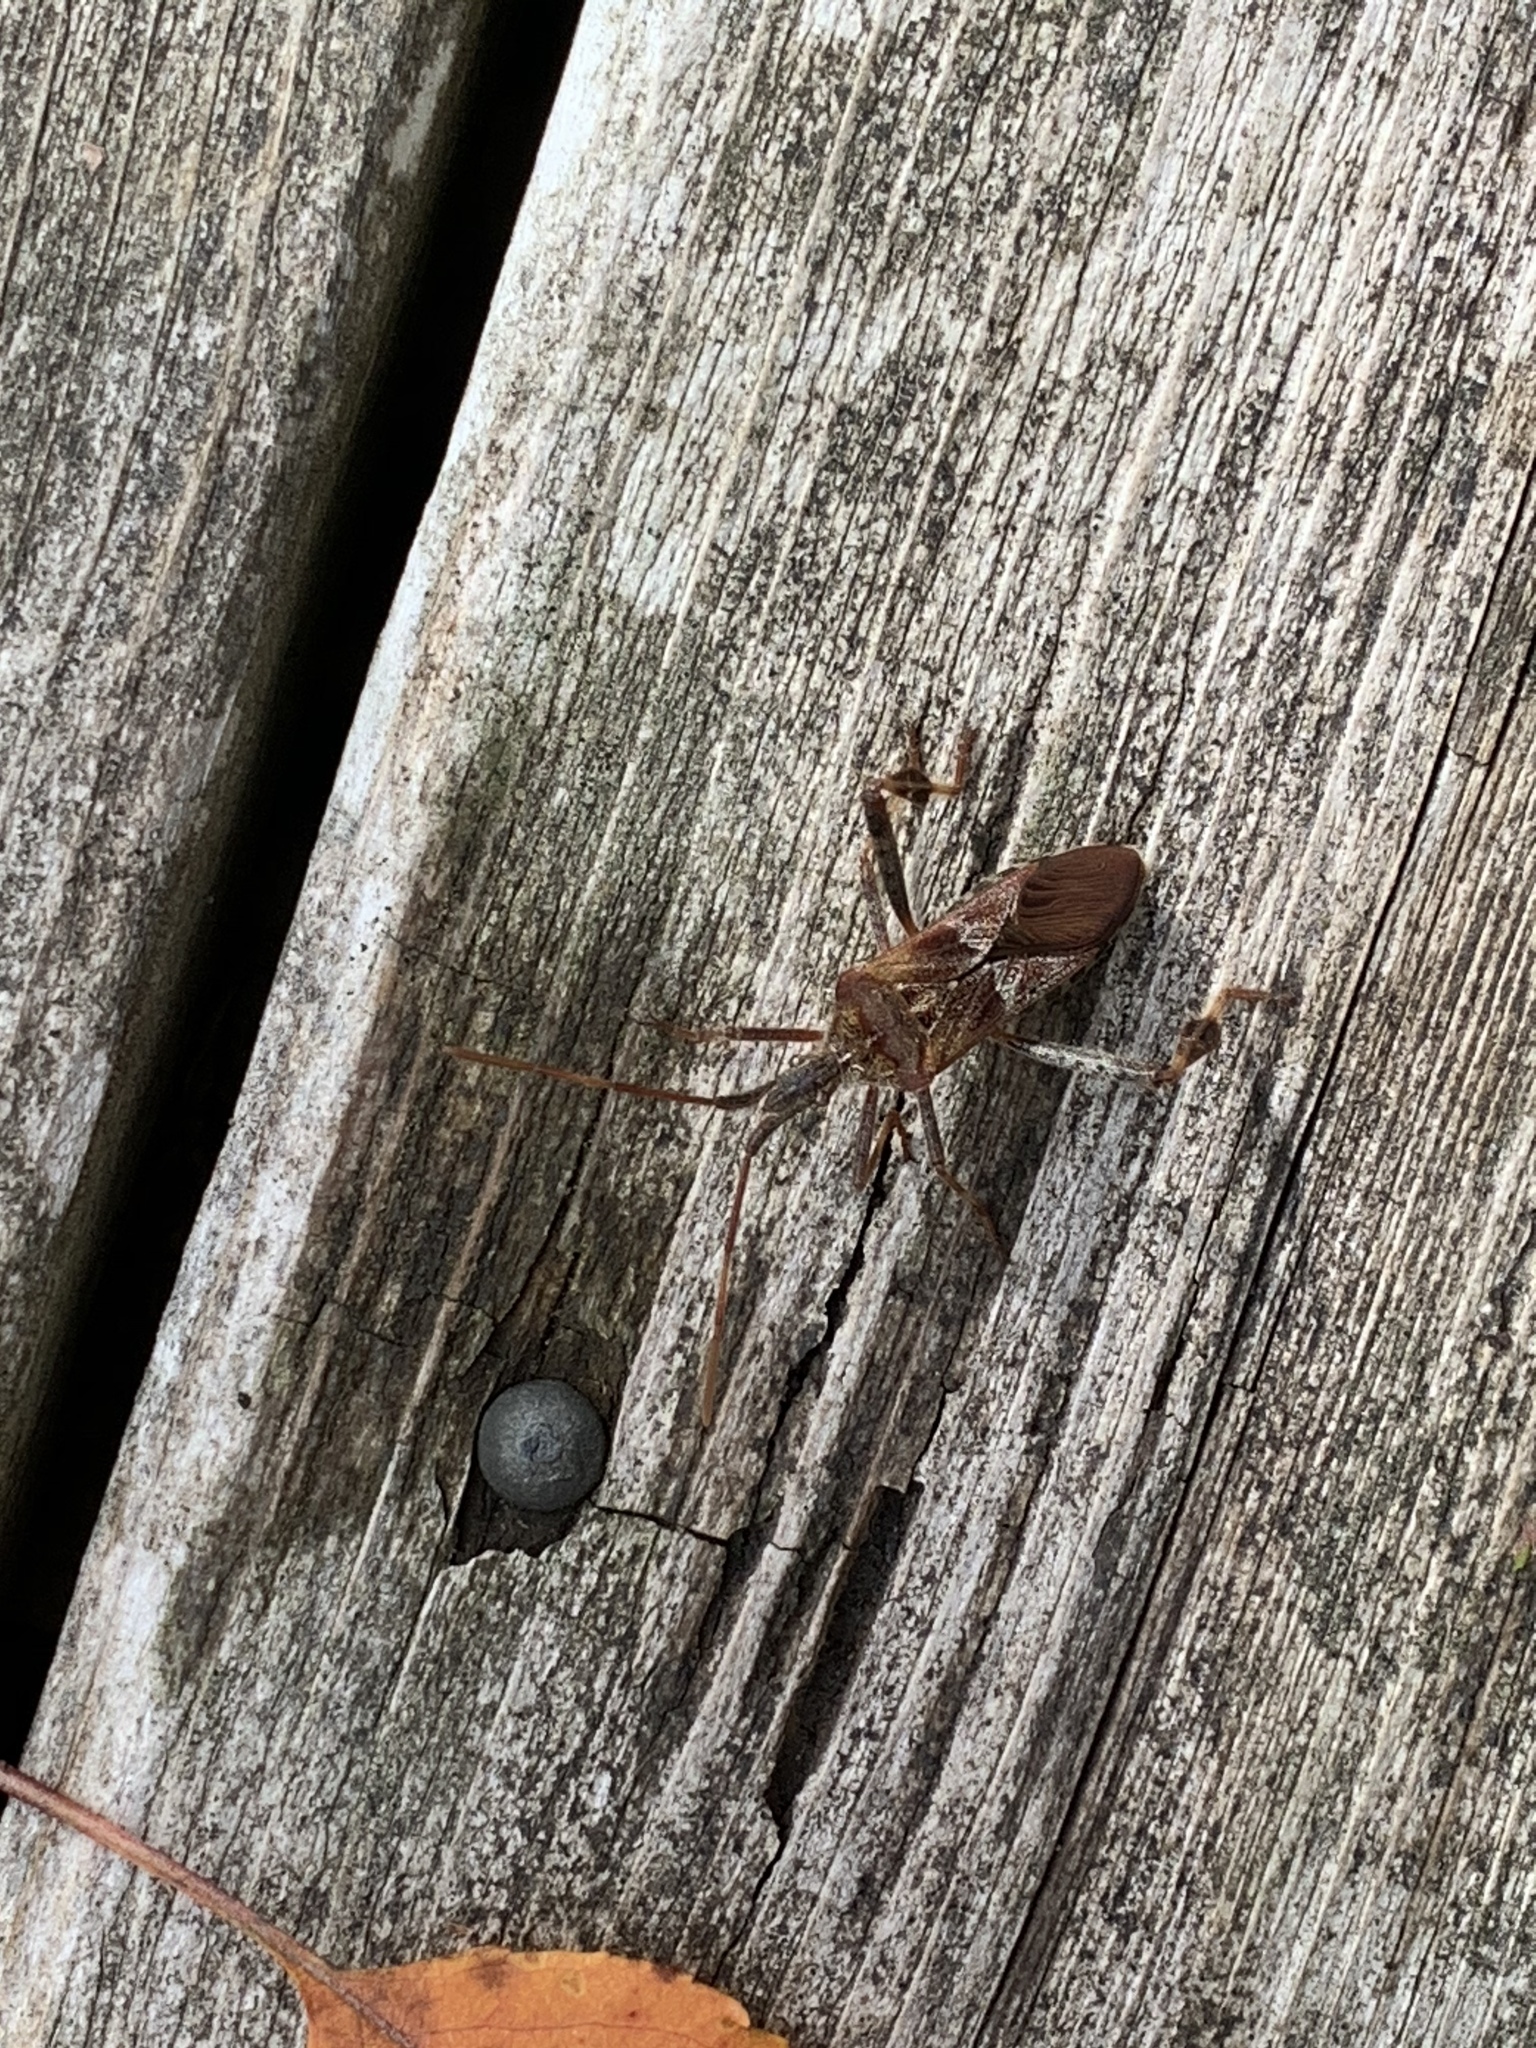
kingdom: Animalia
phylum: Arthropoda
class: Insecta
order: Hemiptera
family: Coreidae
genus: Leptoglossus
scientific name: Leptoglossus occidentalis
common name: Western conifer-seed bug
